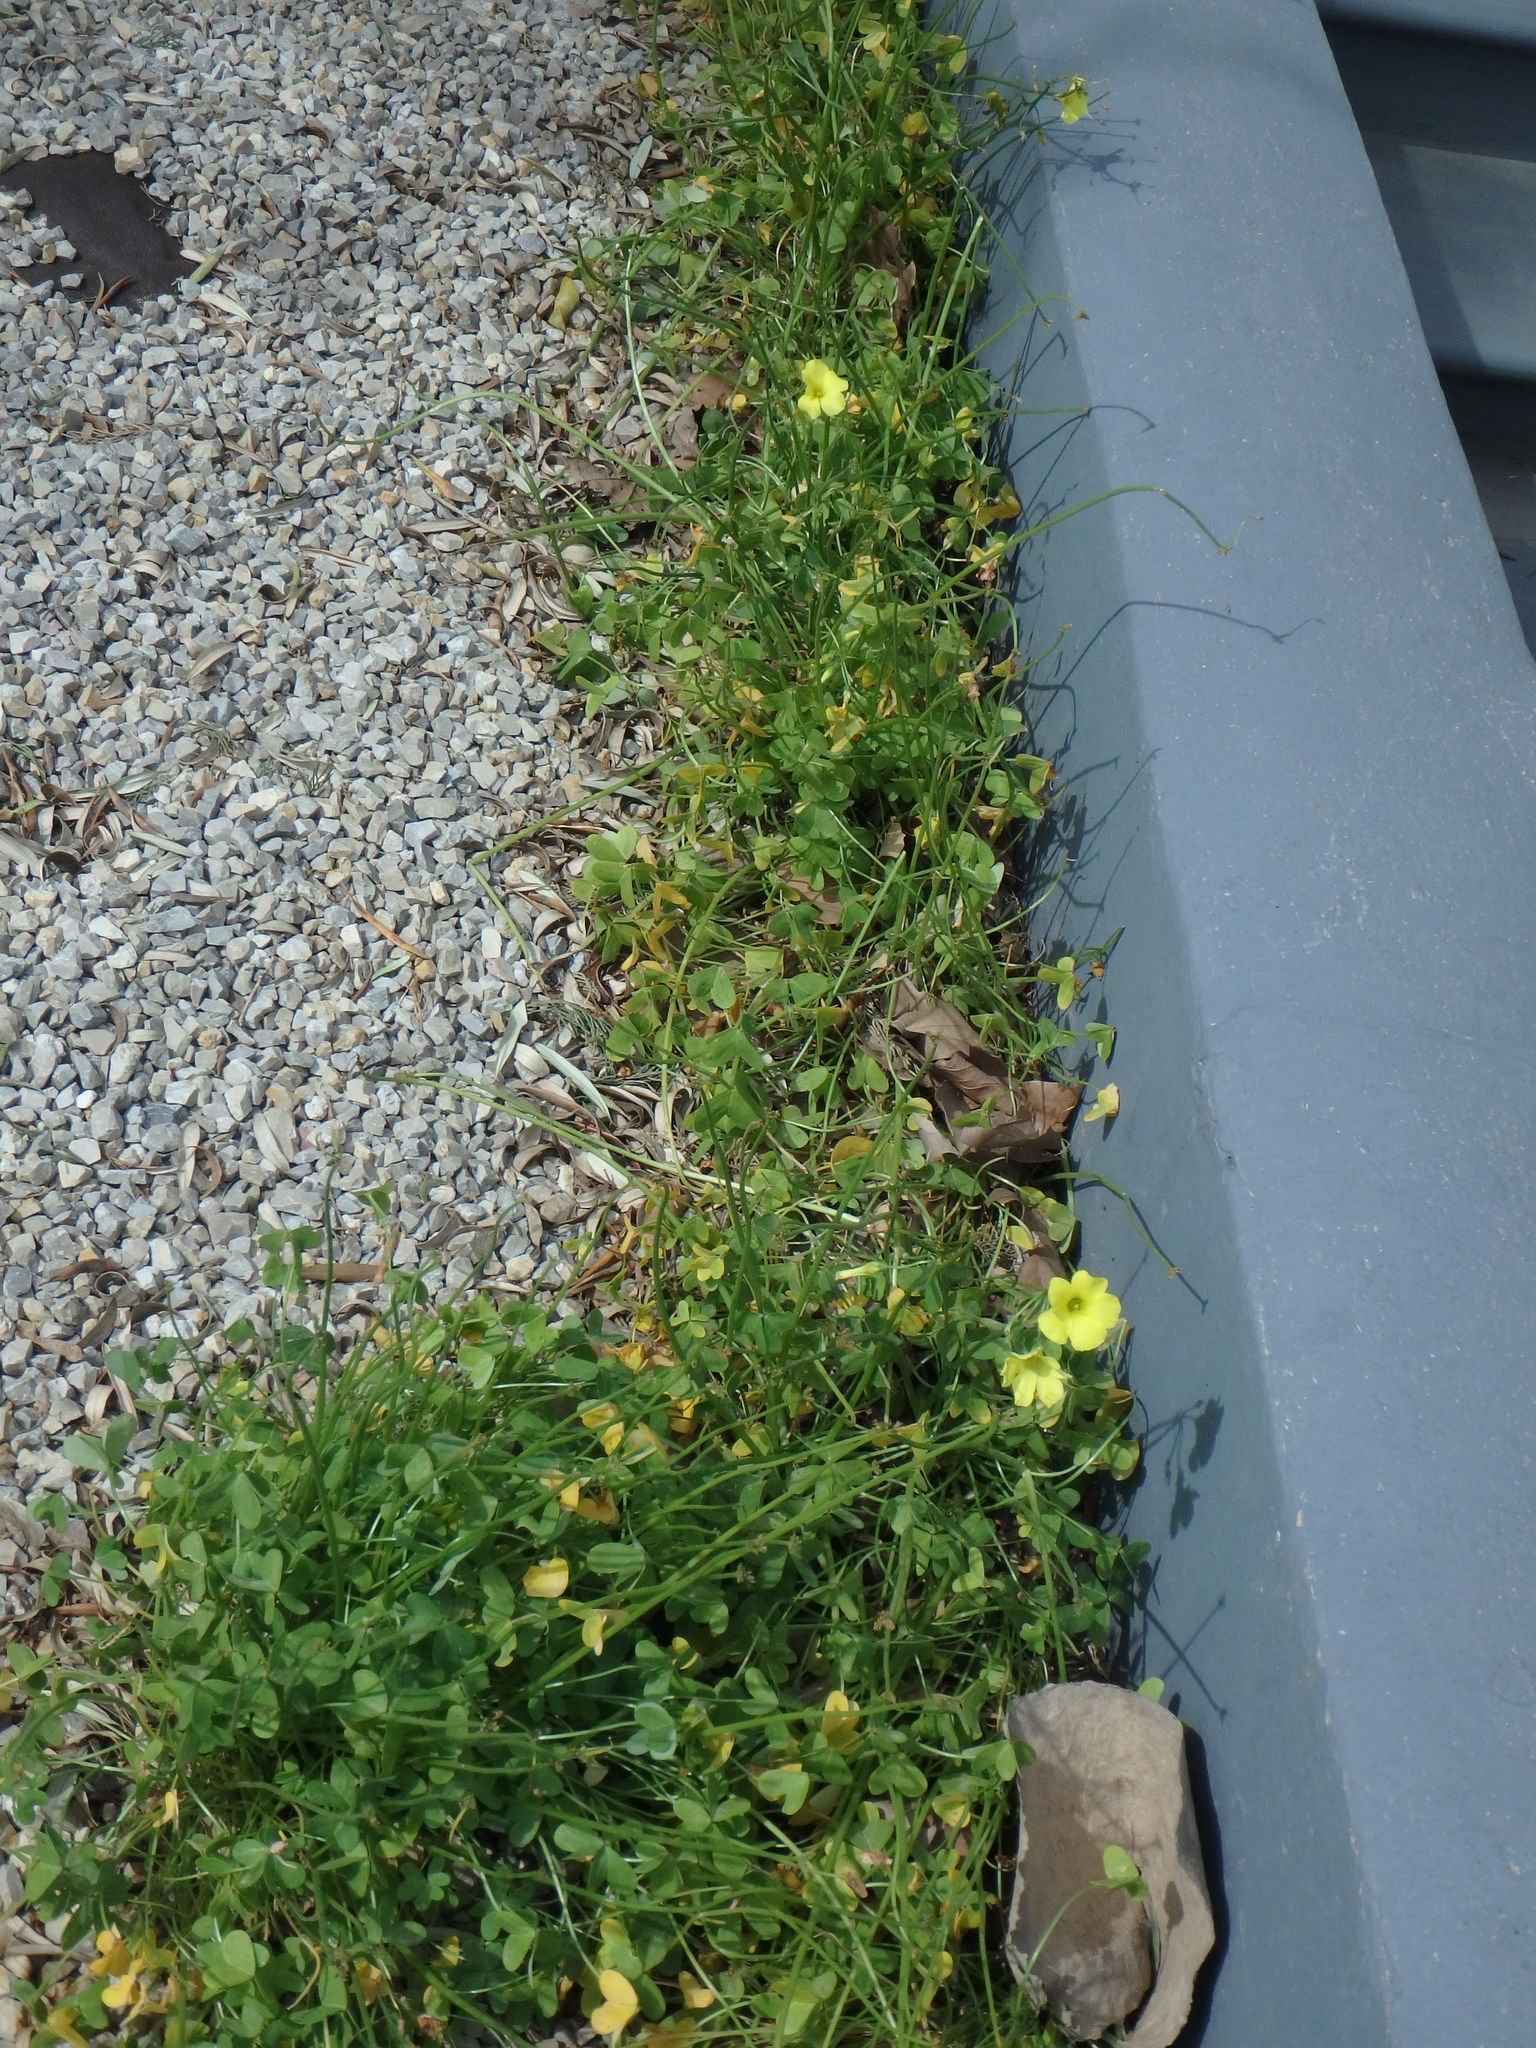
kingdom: Plantae
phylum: Tracheophyta
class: Magnoliopsida
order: Oxalidales
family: Oxalidaceae
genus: Oxalis
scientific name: Oxalis pes-caprae
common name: Bermuda-buttercup
